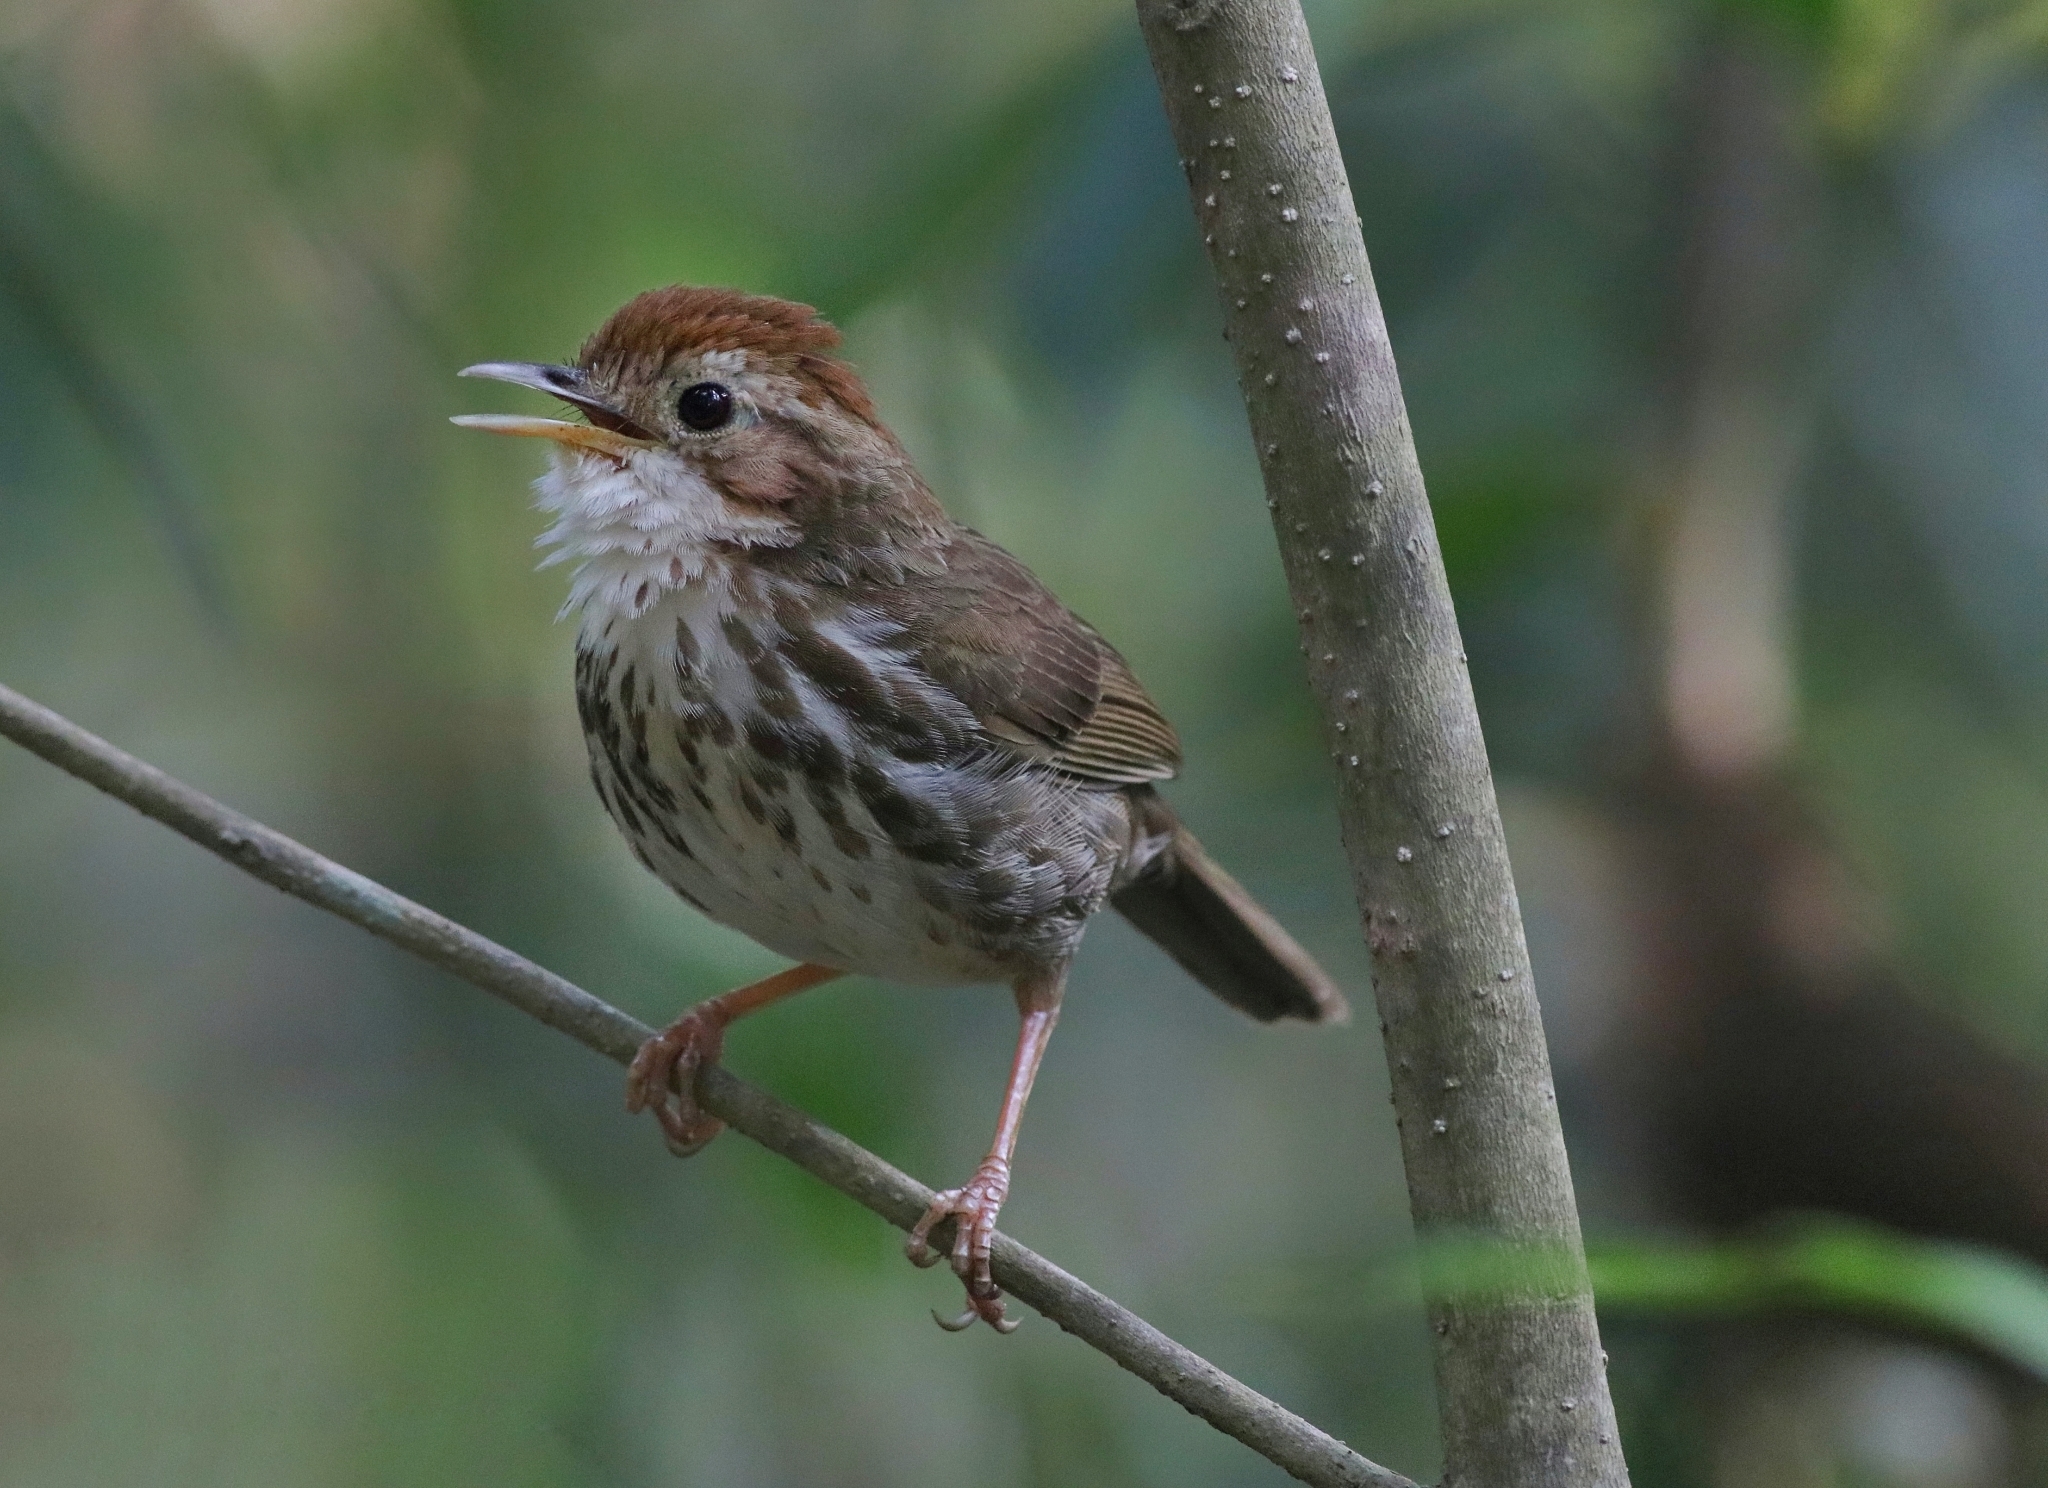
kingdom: Animalia
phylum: Chordata
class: Aves
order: Passeriformes
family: Pellorneidae
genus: Pellorneum
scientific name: Pellorneum ruficeps
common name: Puff-throated babbler
